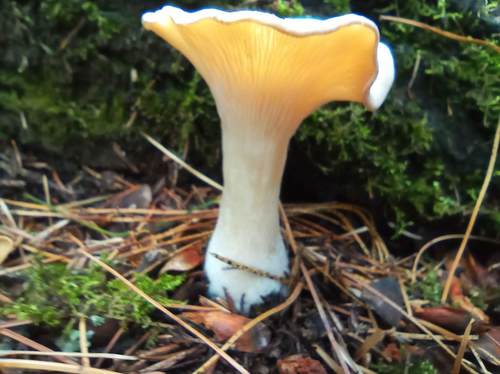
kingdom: Fungi
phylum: Basidiomycota
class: Agaricomycetes
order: Agaricales
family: Tricholomataceae
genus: Infundibulicybe
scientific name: Infundibulicybe gibba
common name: Common funnel
